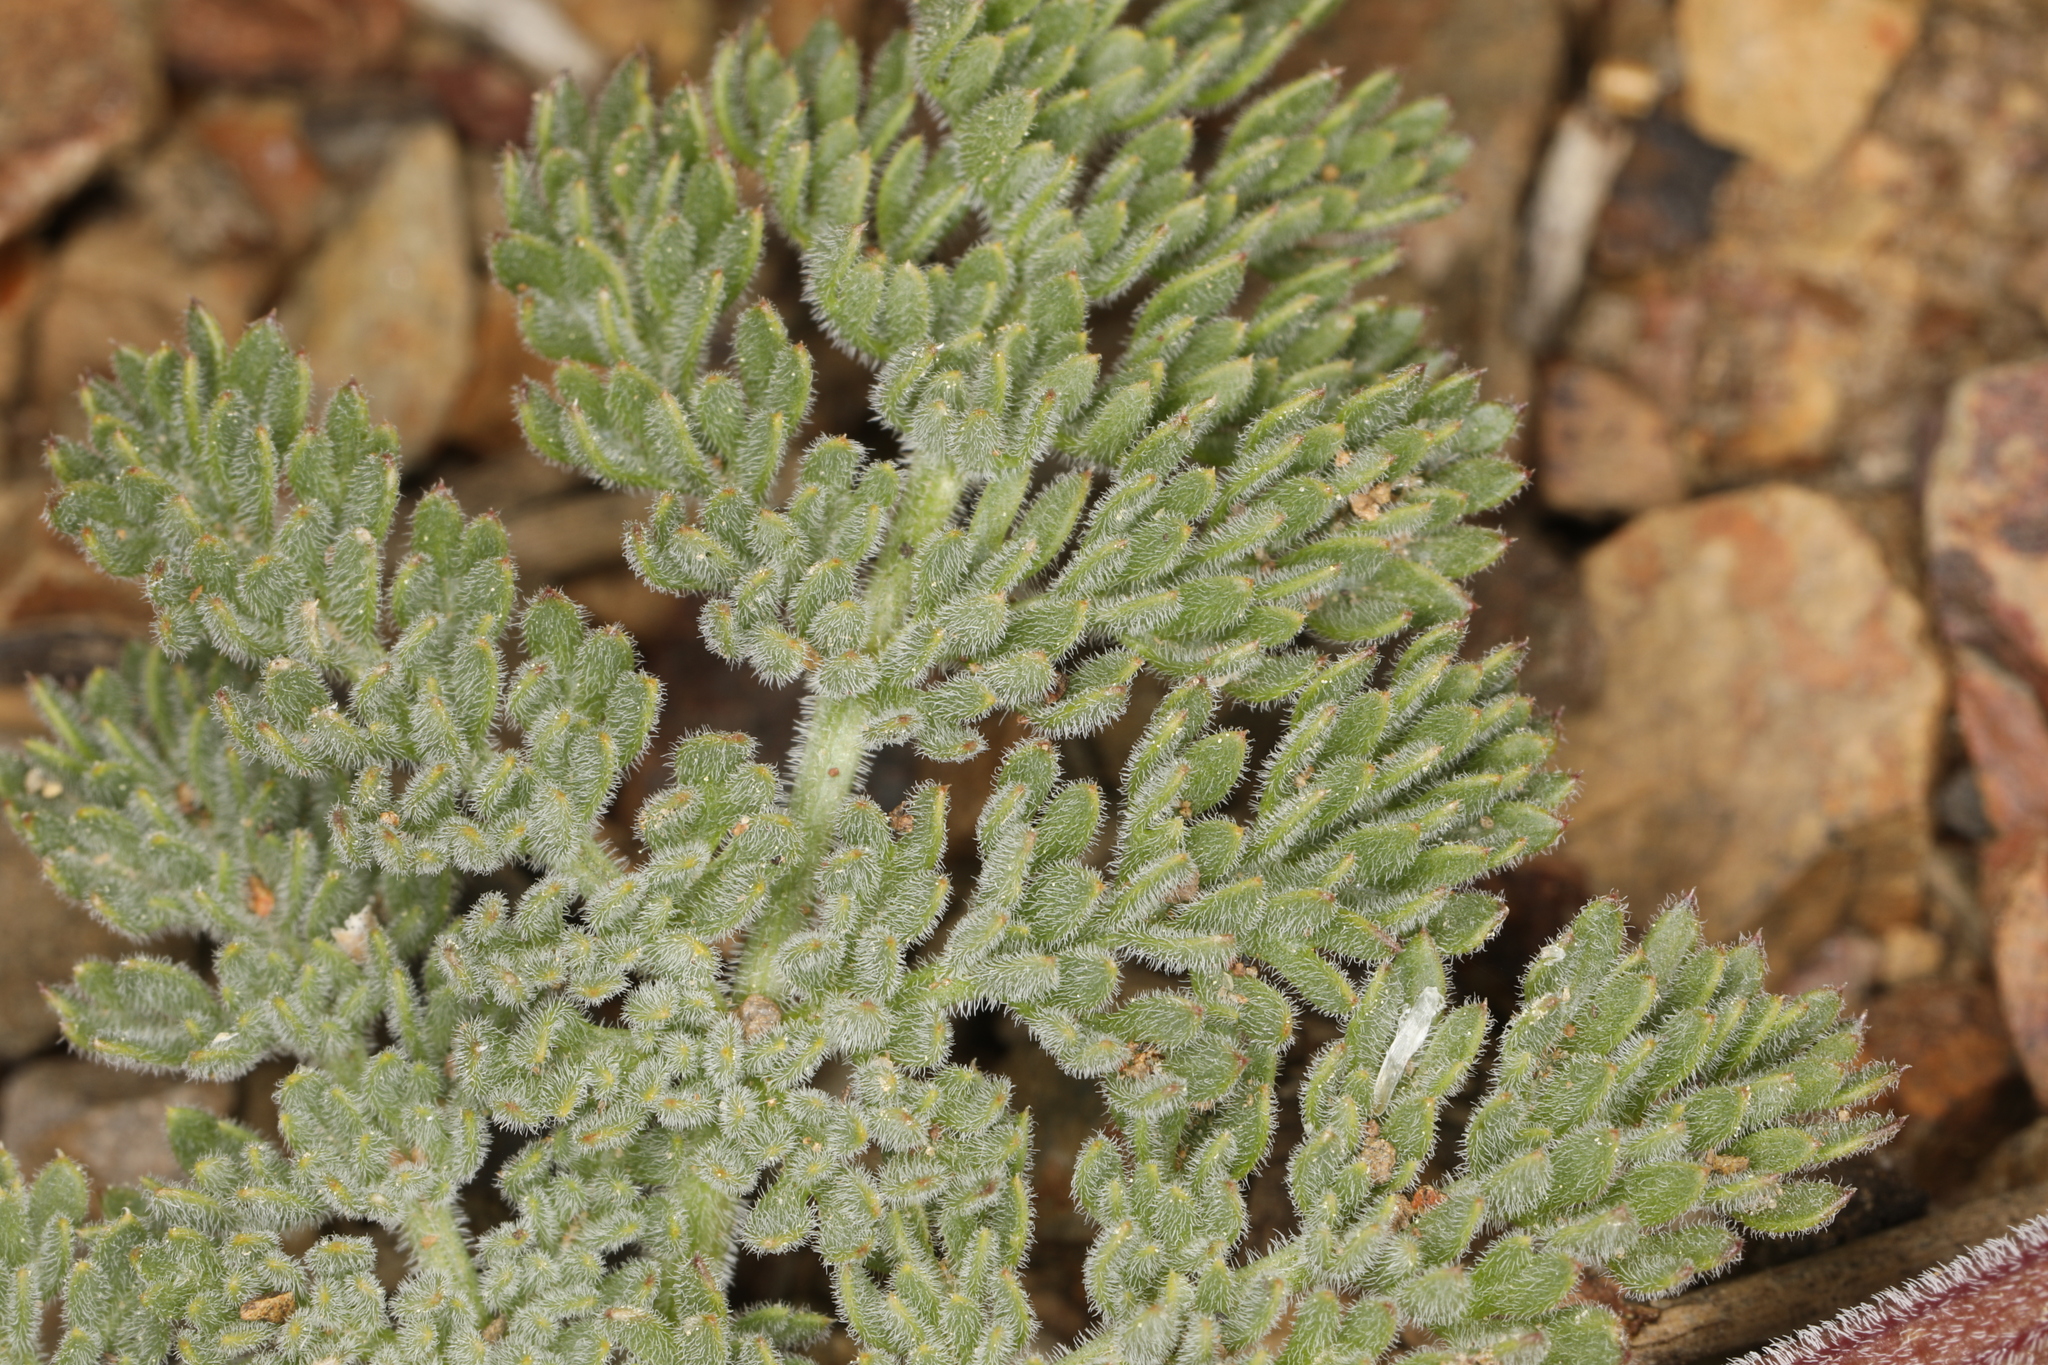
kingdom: Plantae
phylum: Tracheophyta
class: Magnoliopsida
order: Apiales
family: Apiaceae
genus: Lomatium
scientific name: Lomatium foeniculaceum
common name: Desert-parsley
